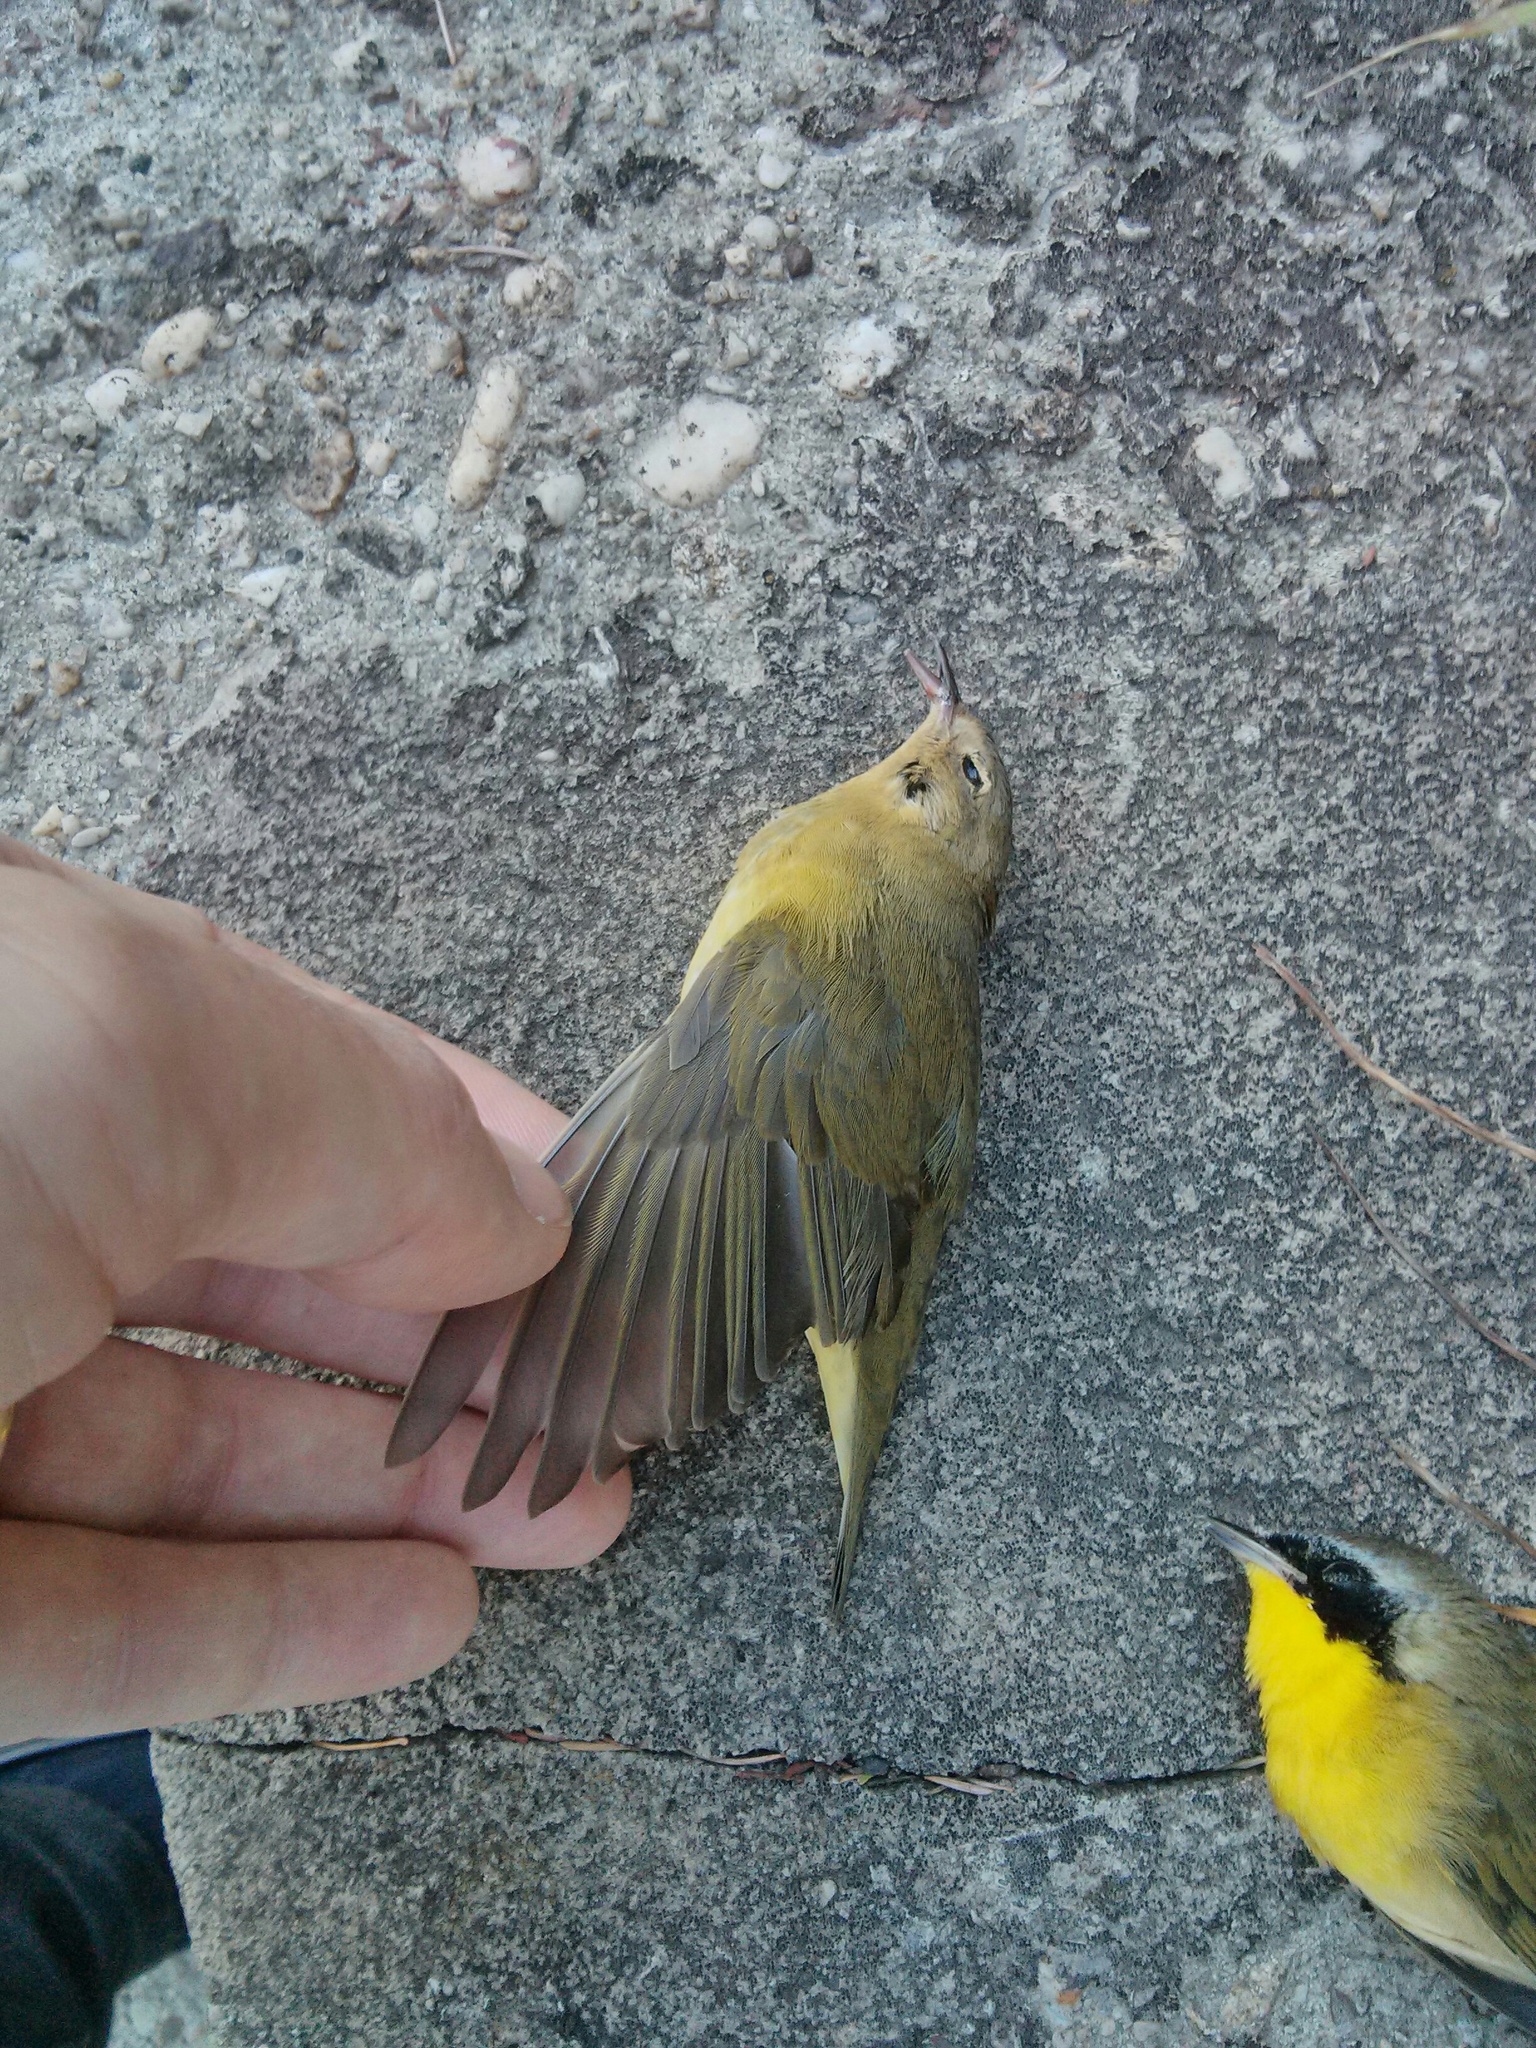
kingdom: Animalia
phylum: Chordata
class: Aves
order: Passeriformes
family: Parulidae
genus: Geothlypis
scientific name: Geothlypis trichas
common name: Common yellowthroat
